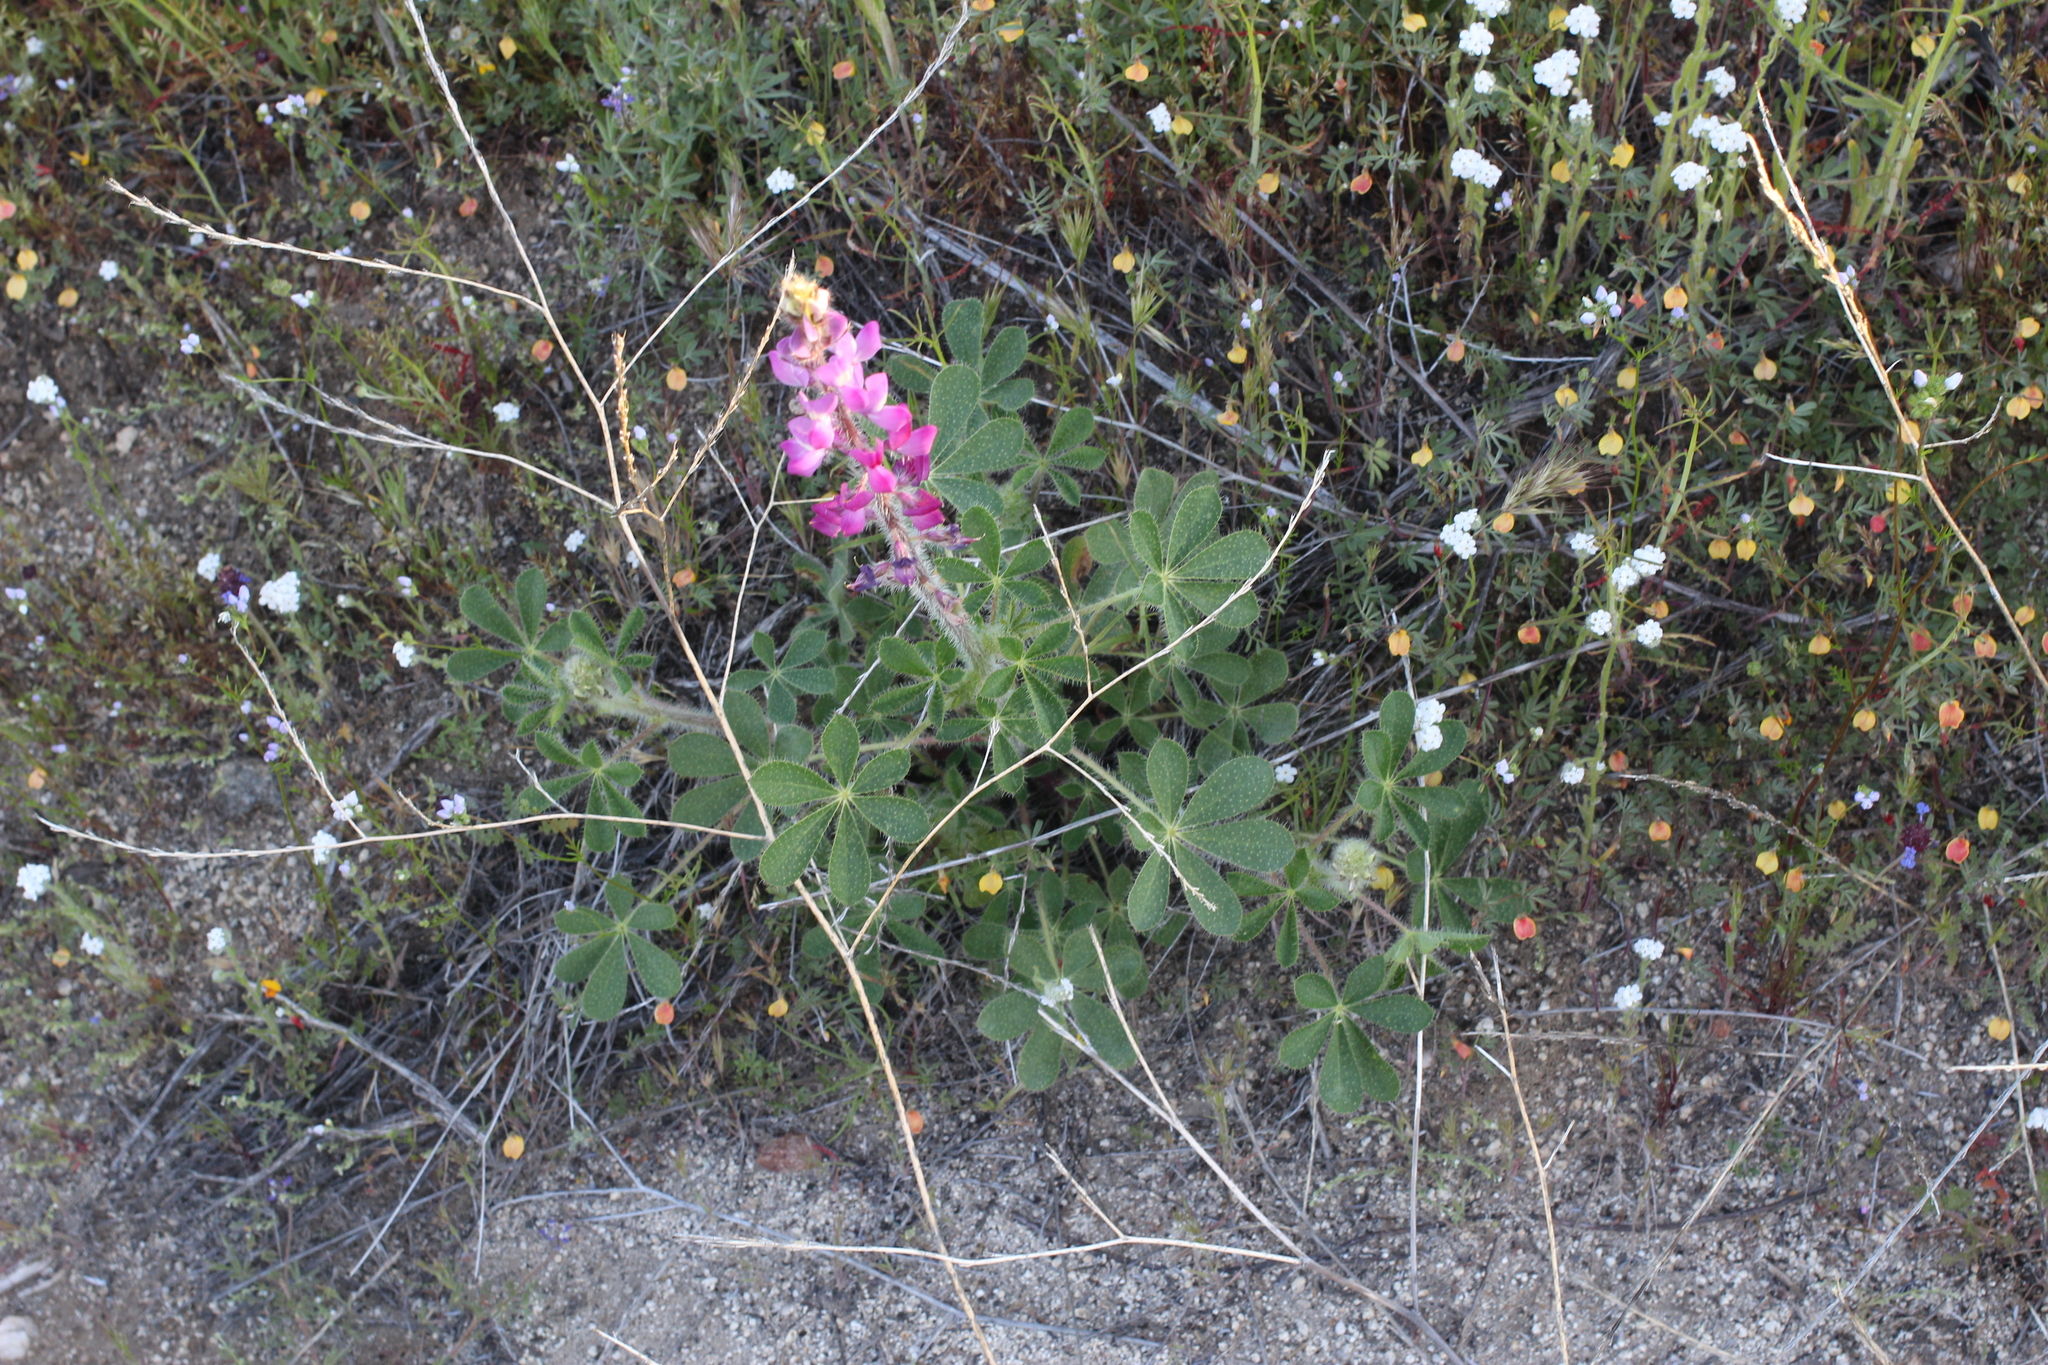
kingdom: Plantae
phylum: Tracheophyta
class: Magnoliopsida
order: Fabales
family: Fabaceae
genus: Lupinus
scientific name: Lupinus hirsutissimus
